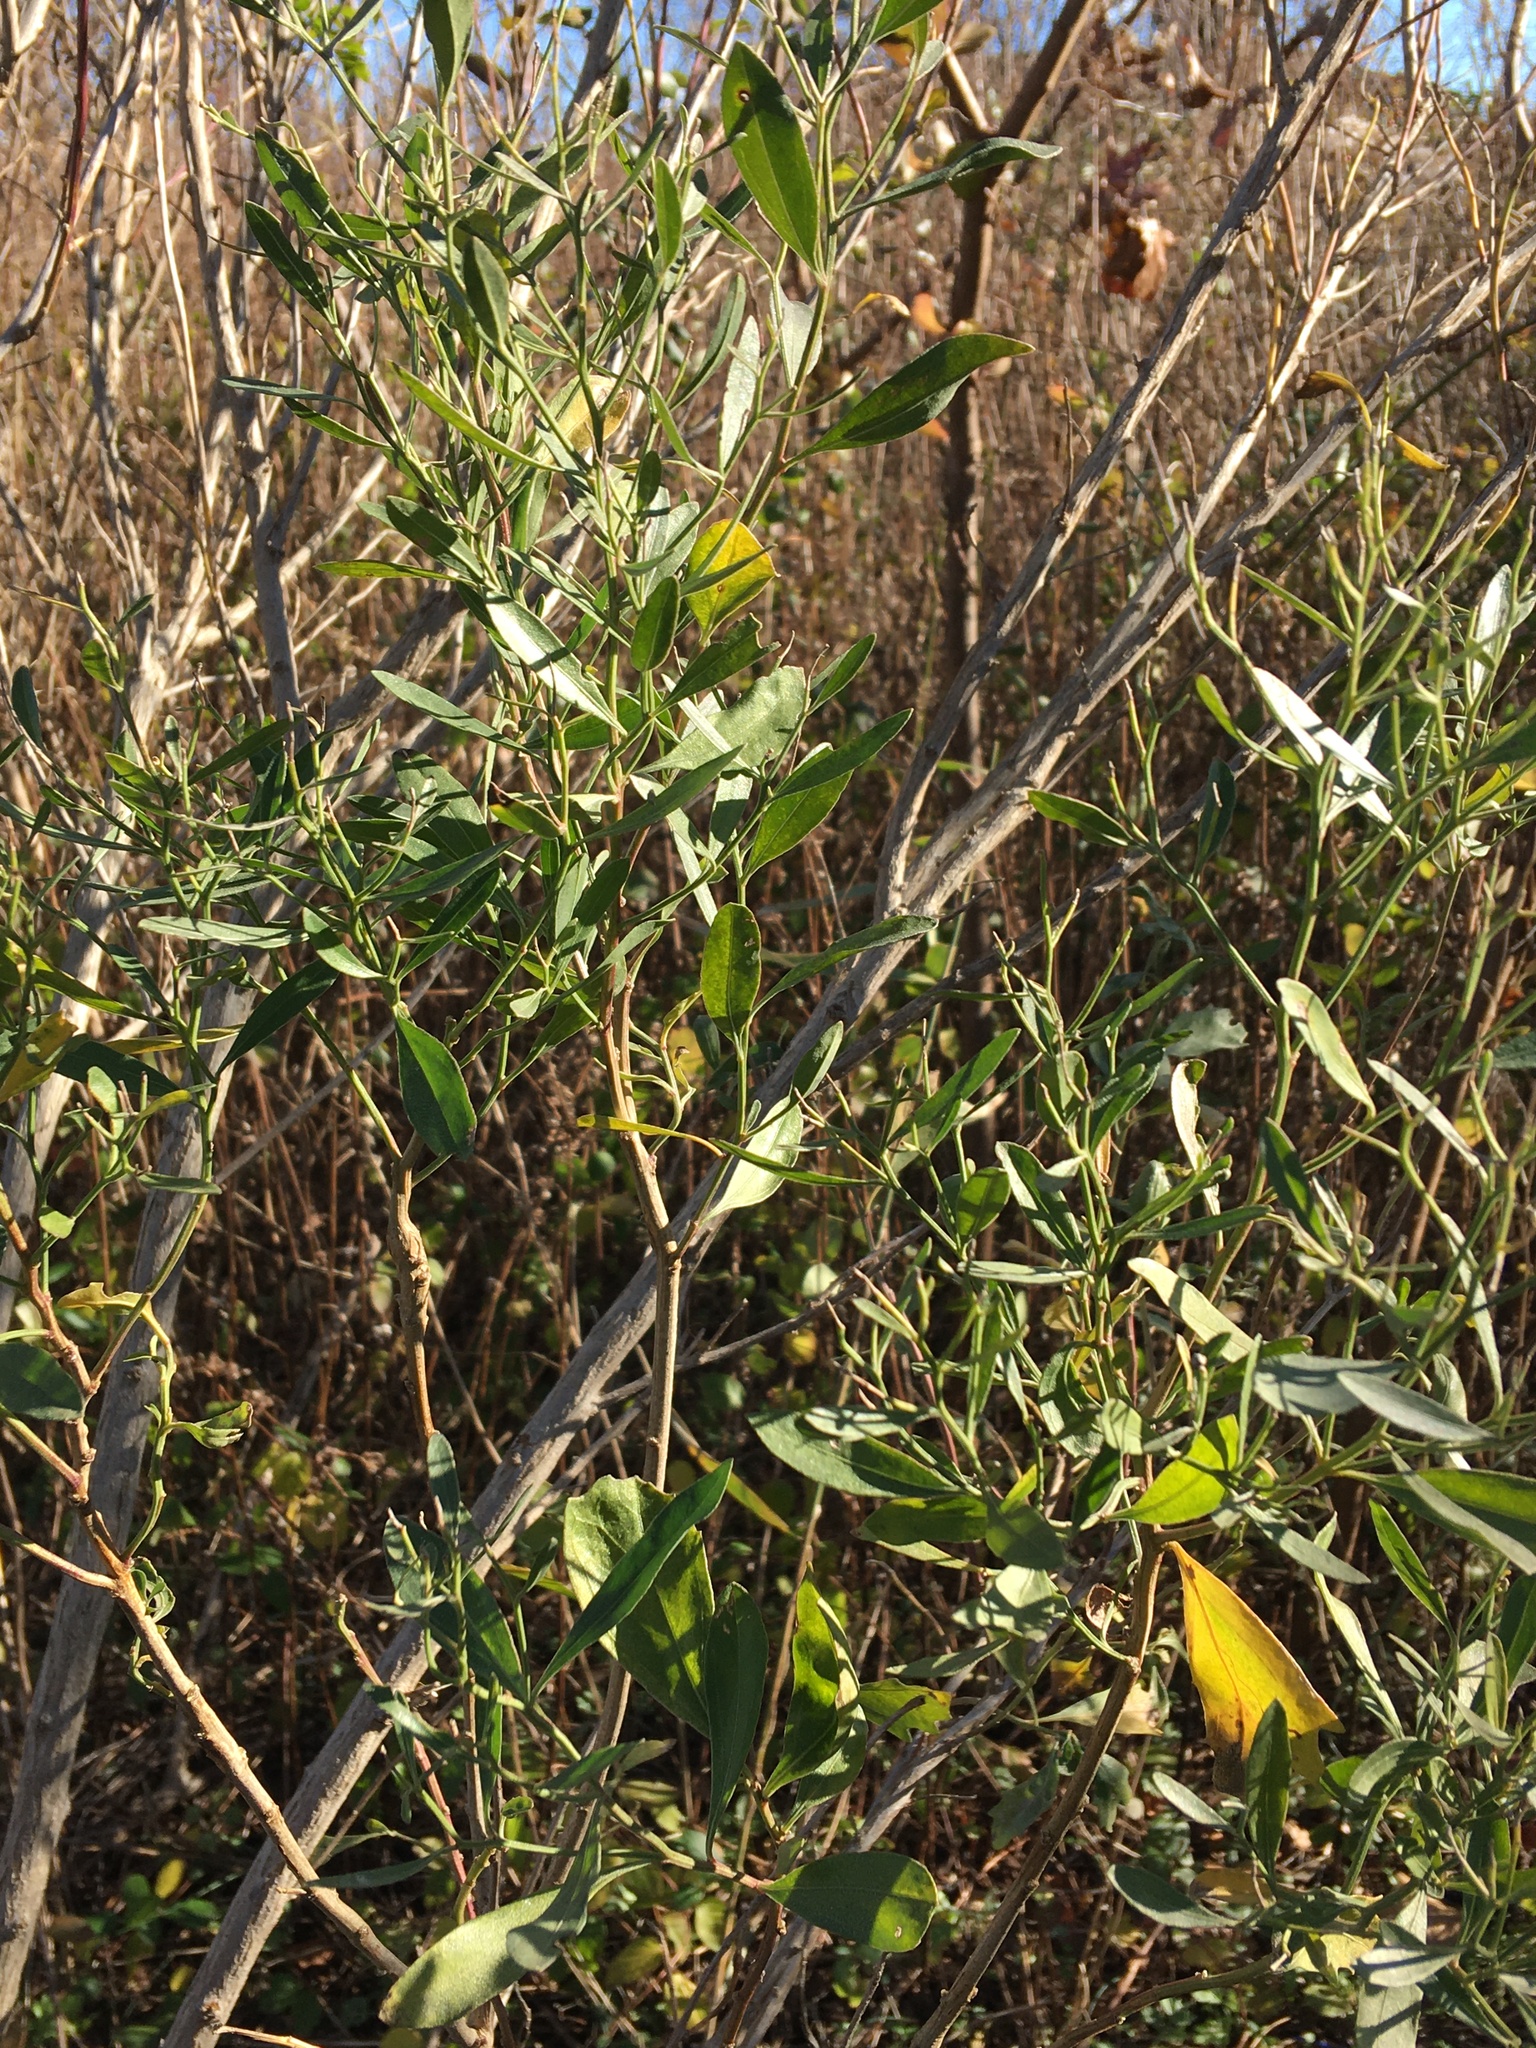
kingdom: Plantae
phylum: Tracheophyta
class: Magnoliopsida
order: Asterales
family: Asteraceae
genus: Baccharis
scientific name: Baccharis halimifolia
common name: Eastern baccharis
